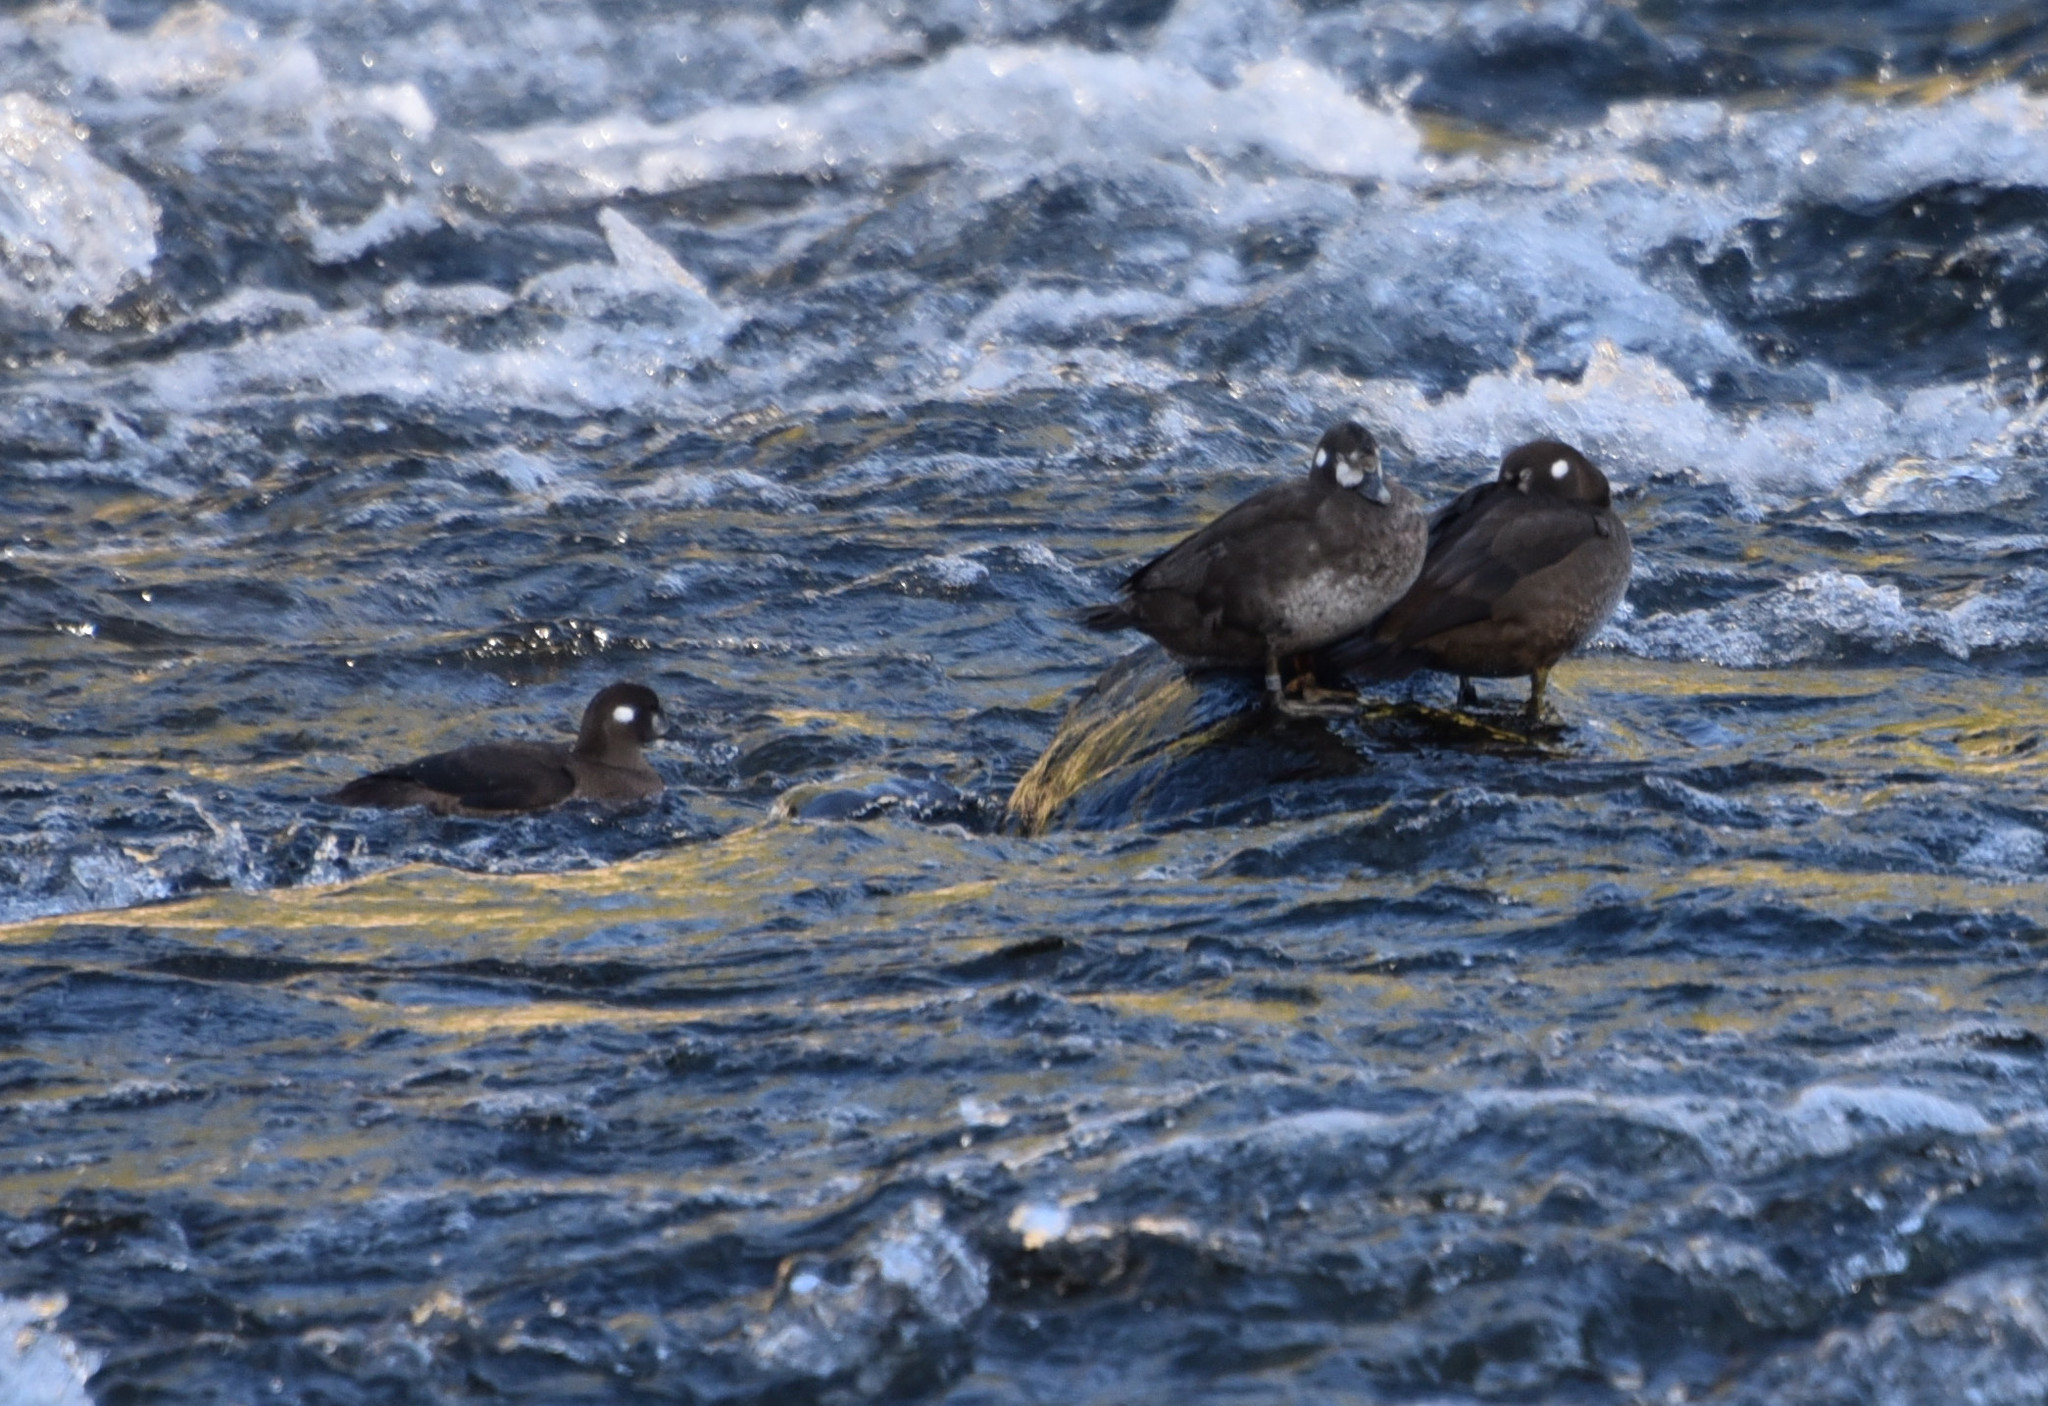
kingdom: Animalia
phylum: Chordata
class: Aves
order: Anseriformes
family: Anatidae
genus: Histrionicus
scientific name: Histrionicus histrionicus
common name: Harlequin duck
